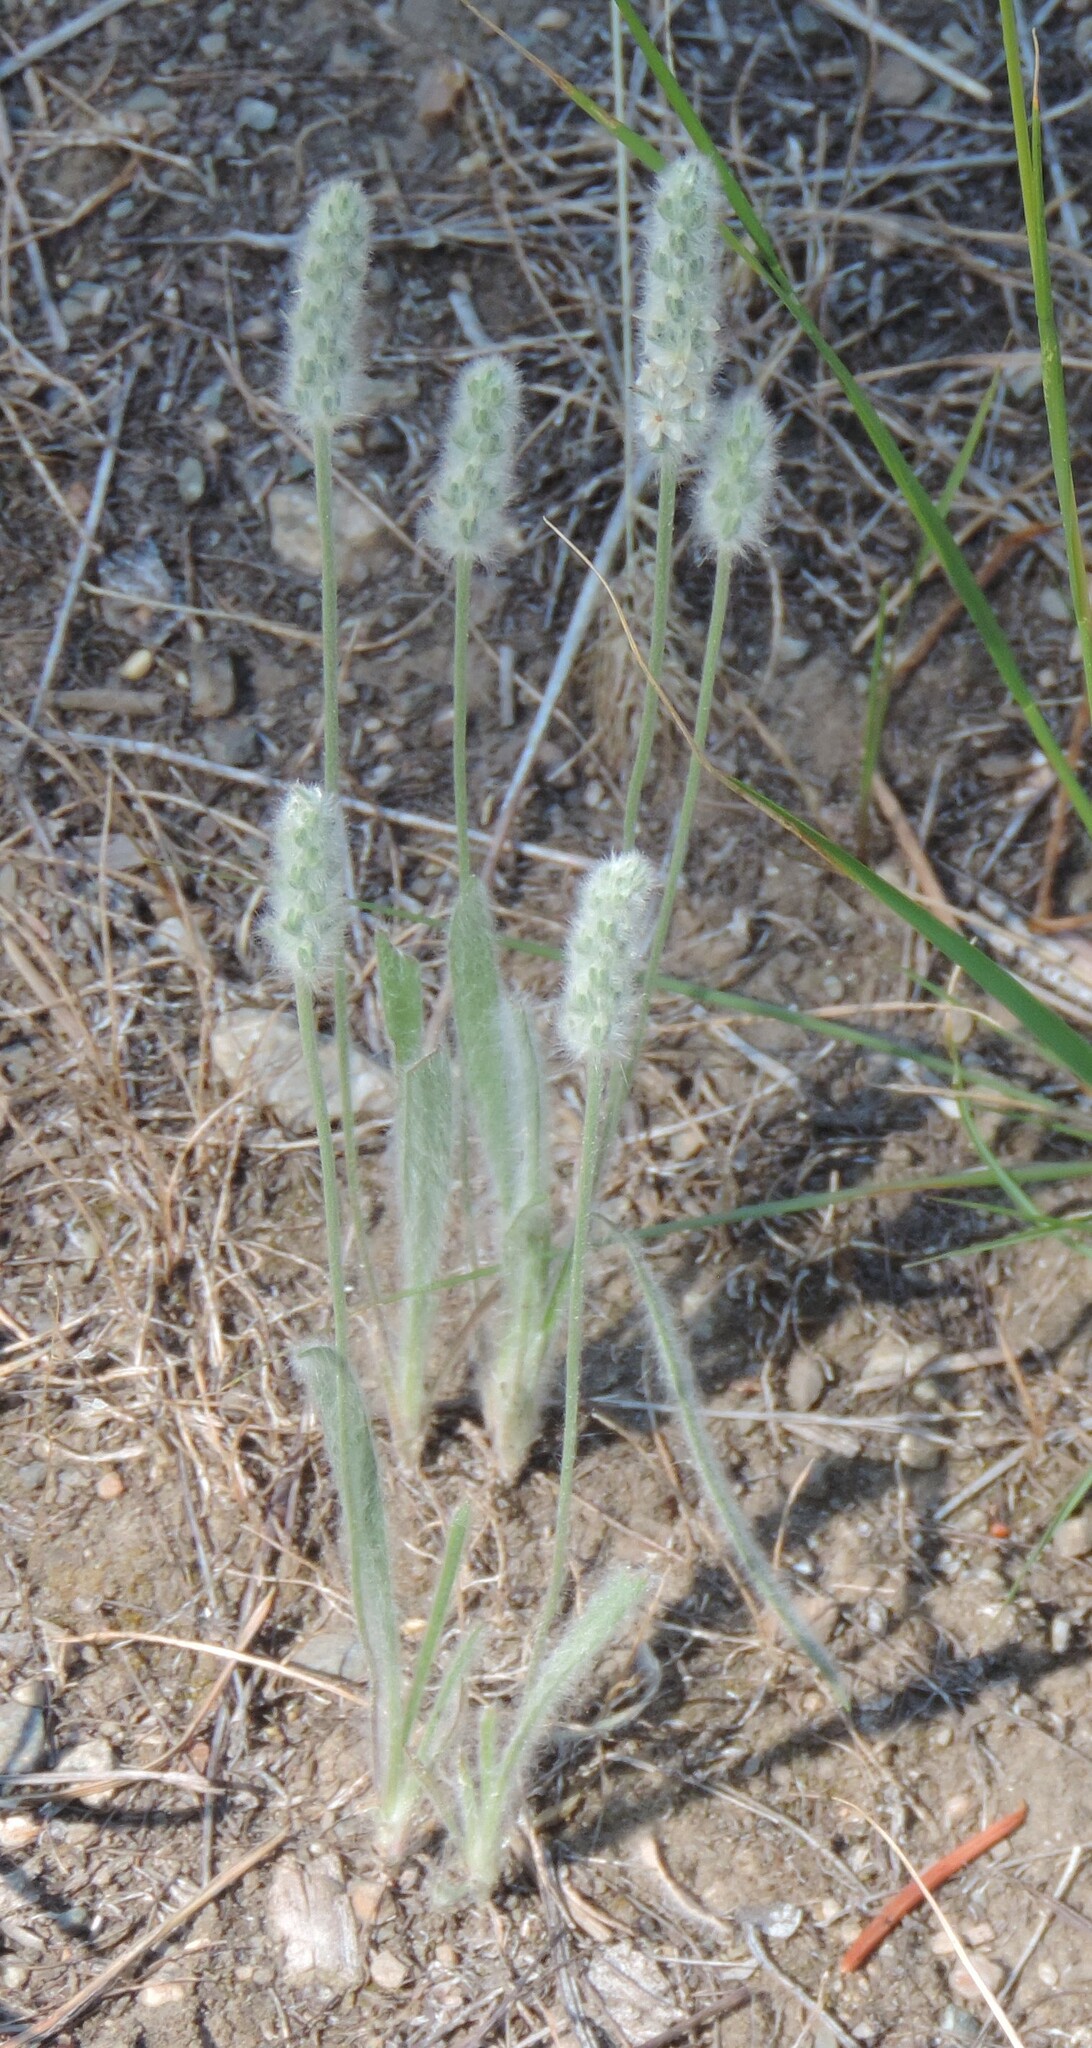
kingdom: Plantae
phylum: Tracheophyta
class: Magnoliopsida
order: Lamiales
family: Plantaginaceae
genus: Plantago
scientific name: Plantago patagonica
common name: Patagonia indian-wheat
